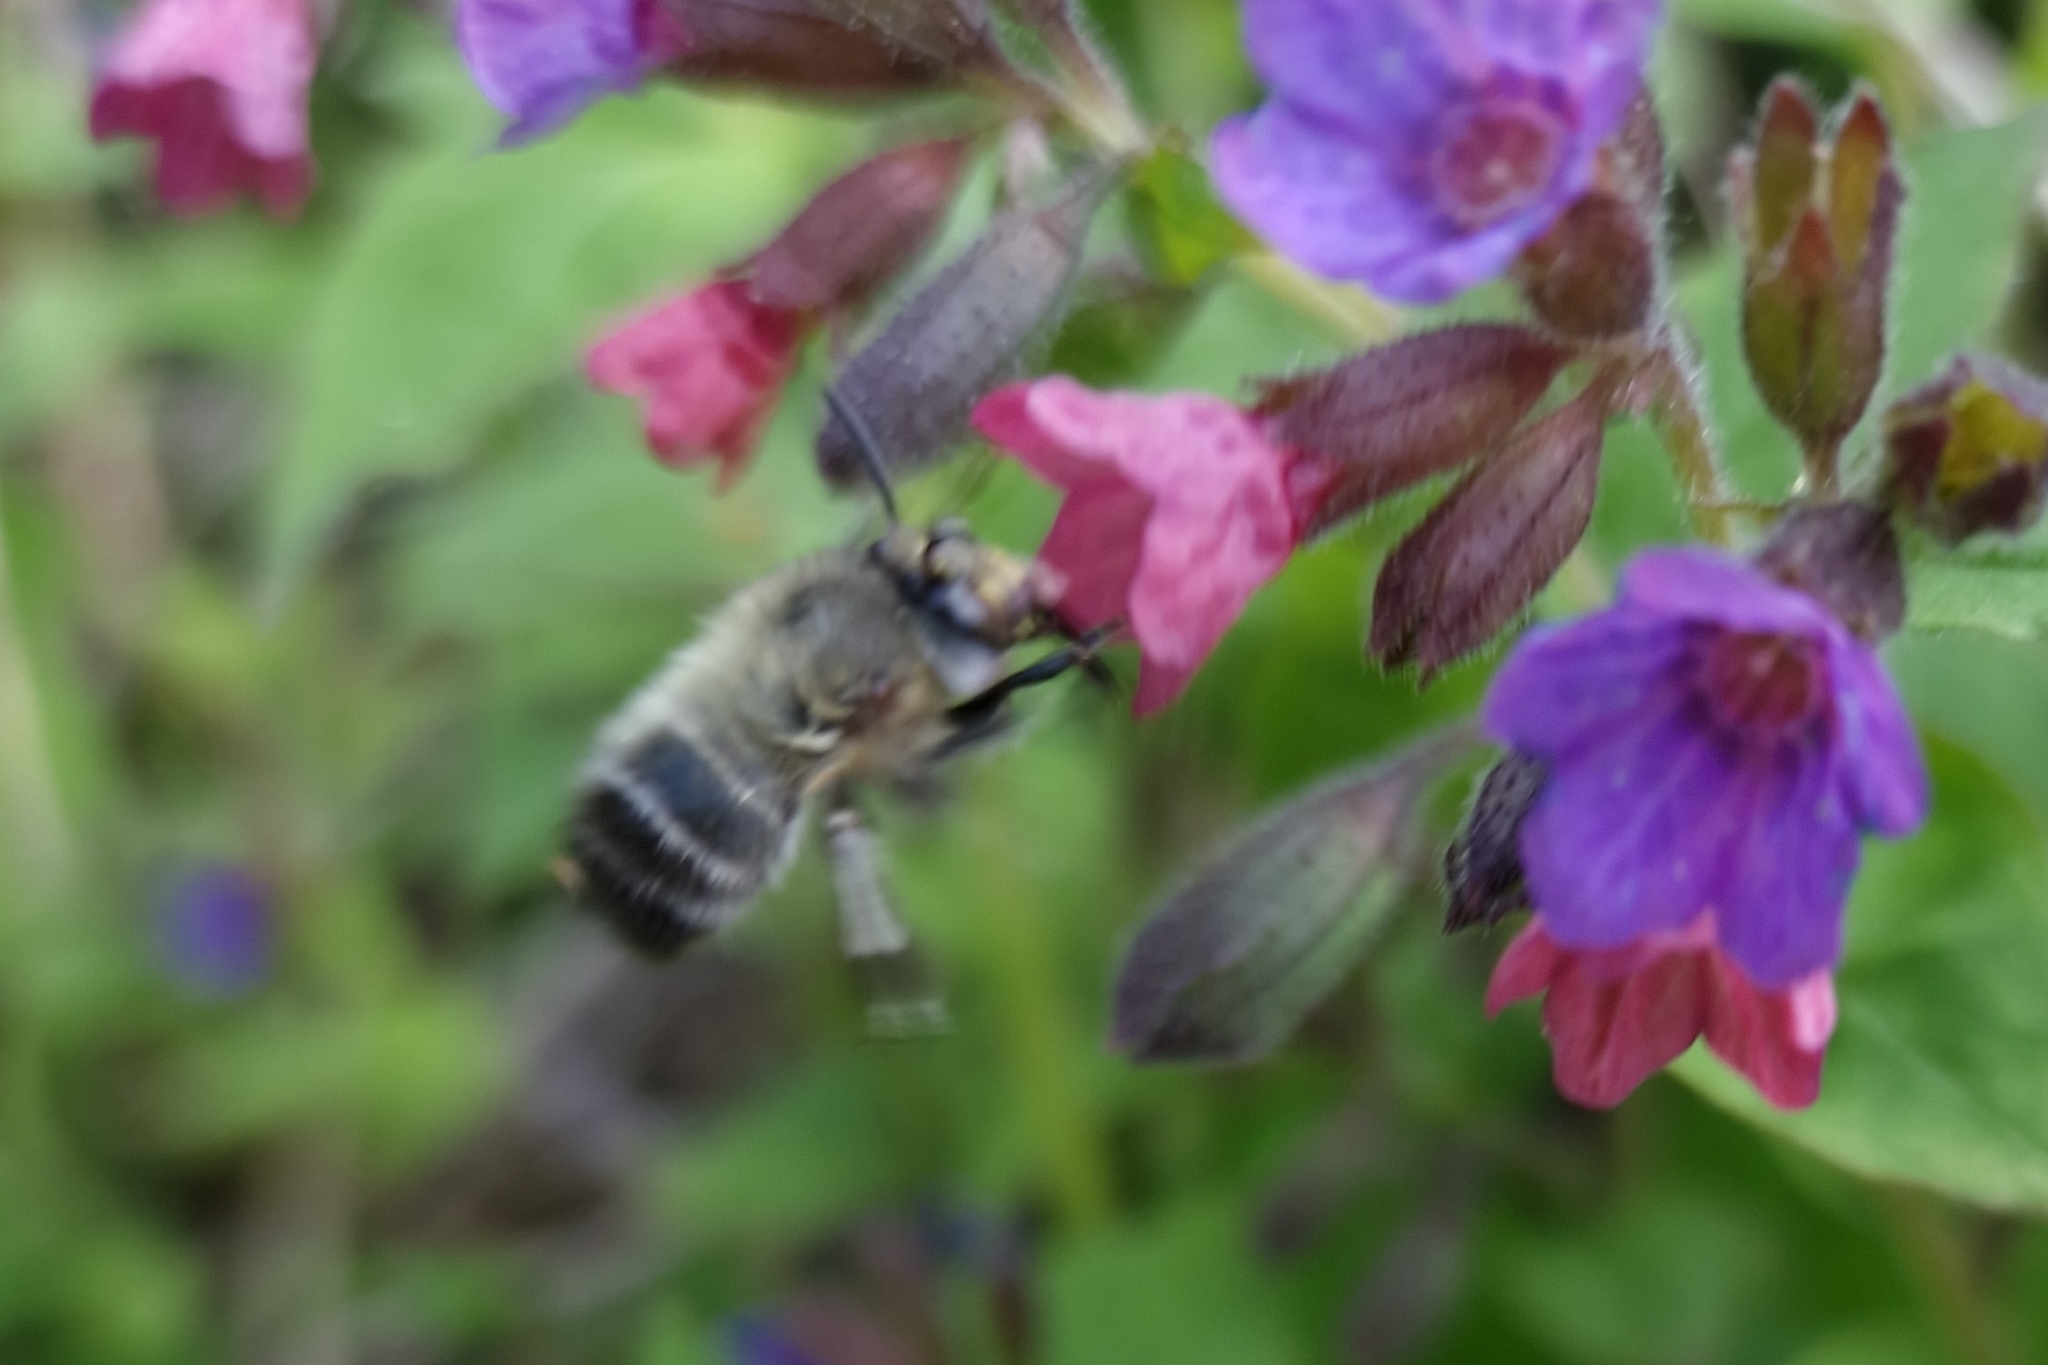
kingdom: Animalia
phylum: Arthropoda
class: Insecta
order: Hymenoptera
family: Apidae
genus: Anthophora
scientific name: Anthophora plumipes
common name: Hairy-footed flower bee
